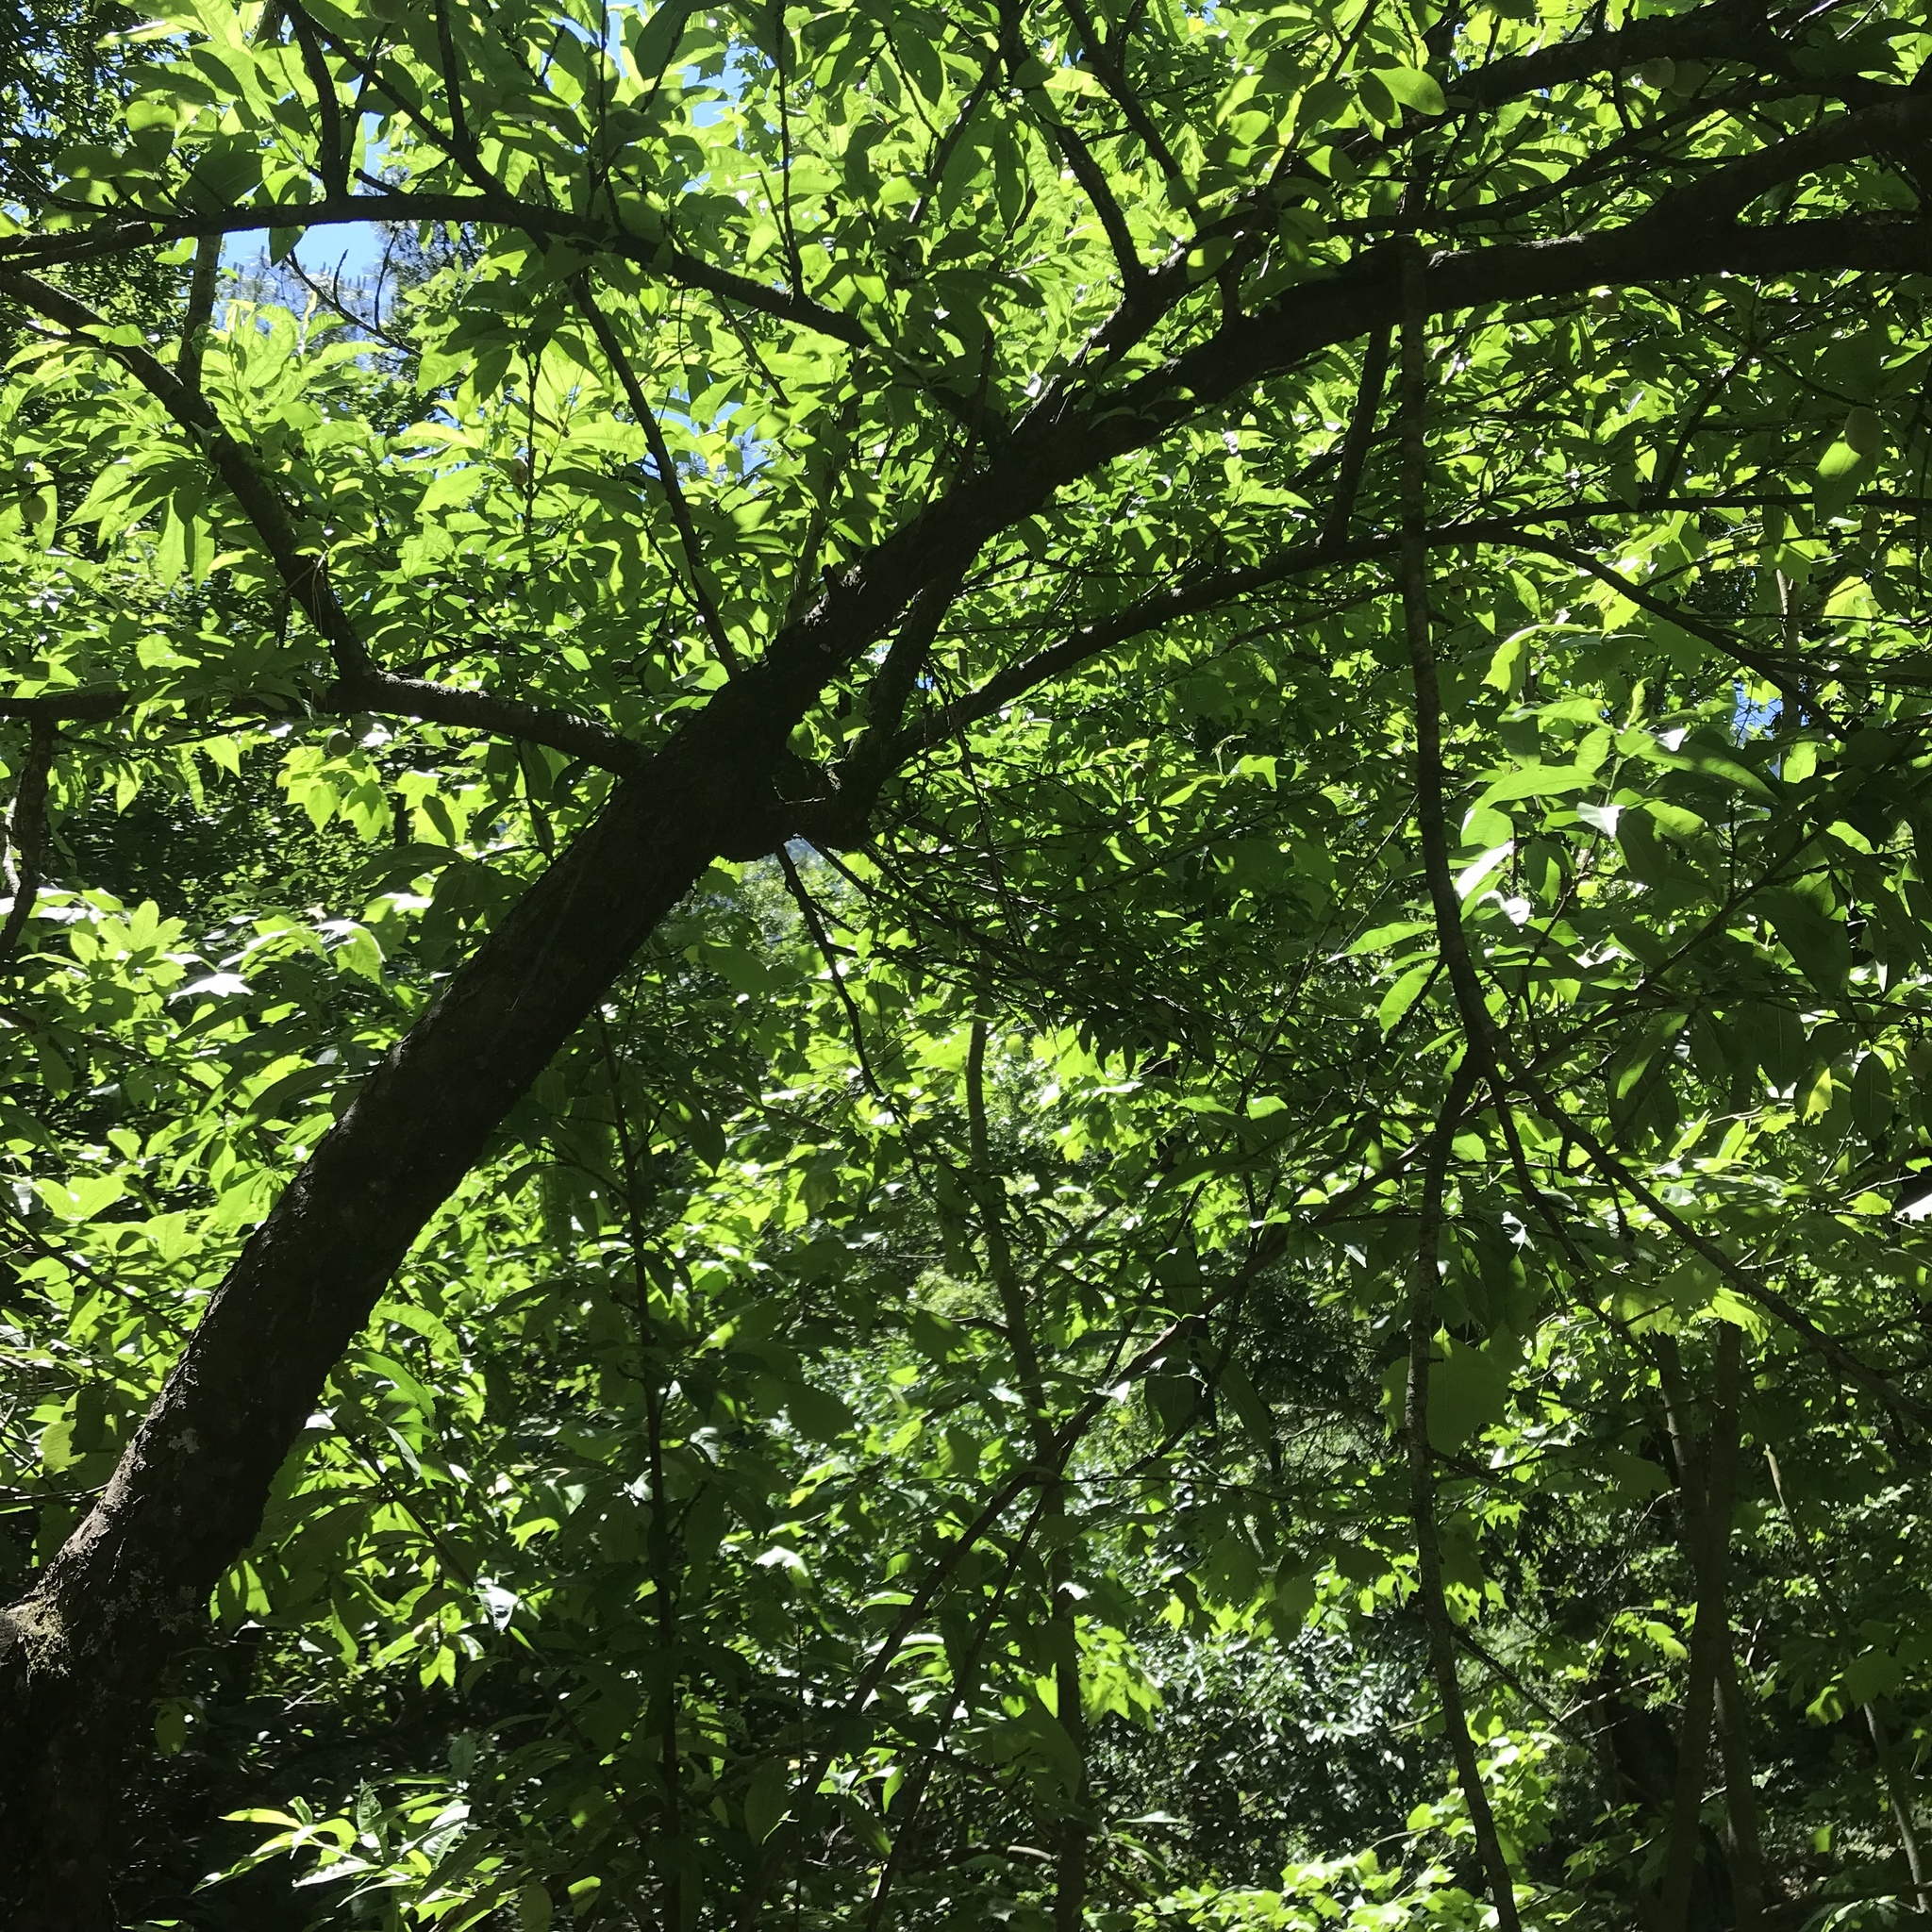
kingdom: Plantae
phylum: Tracheophyta
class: Magnoliopsida
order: Rosales
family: Rosaceae
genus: Prunus
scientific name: Prunus persica
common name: Peach
